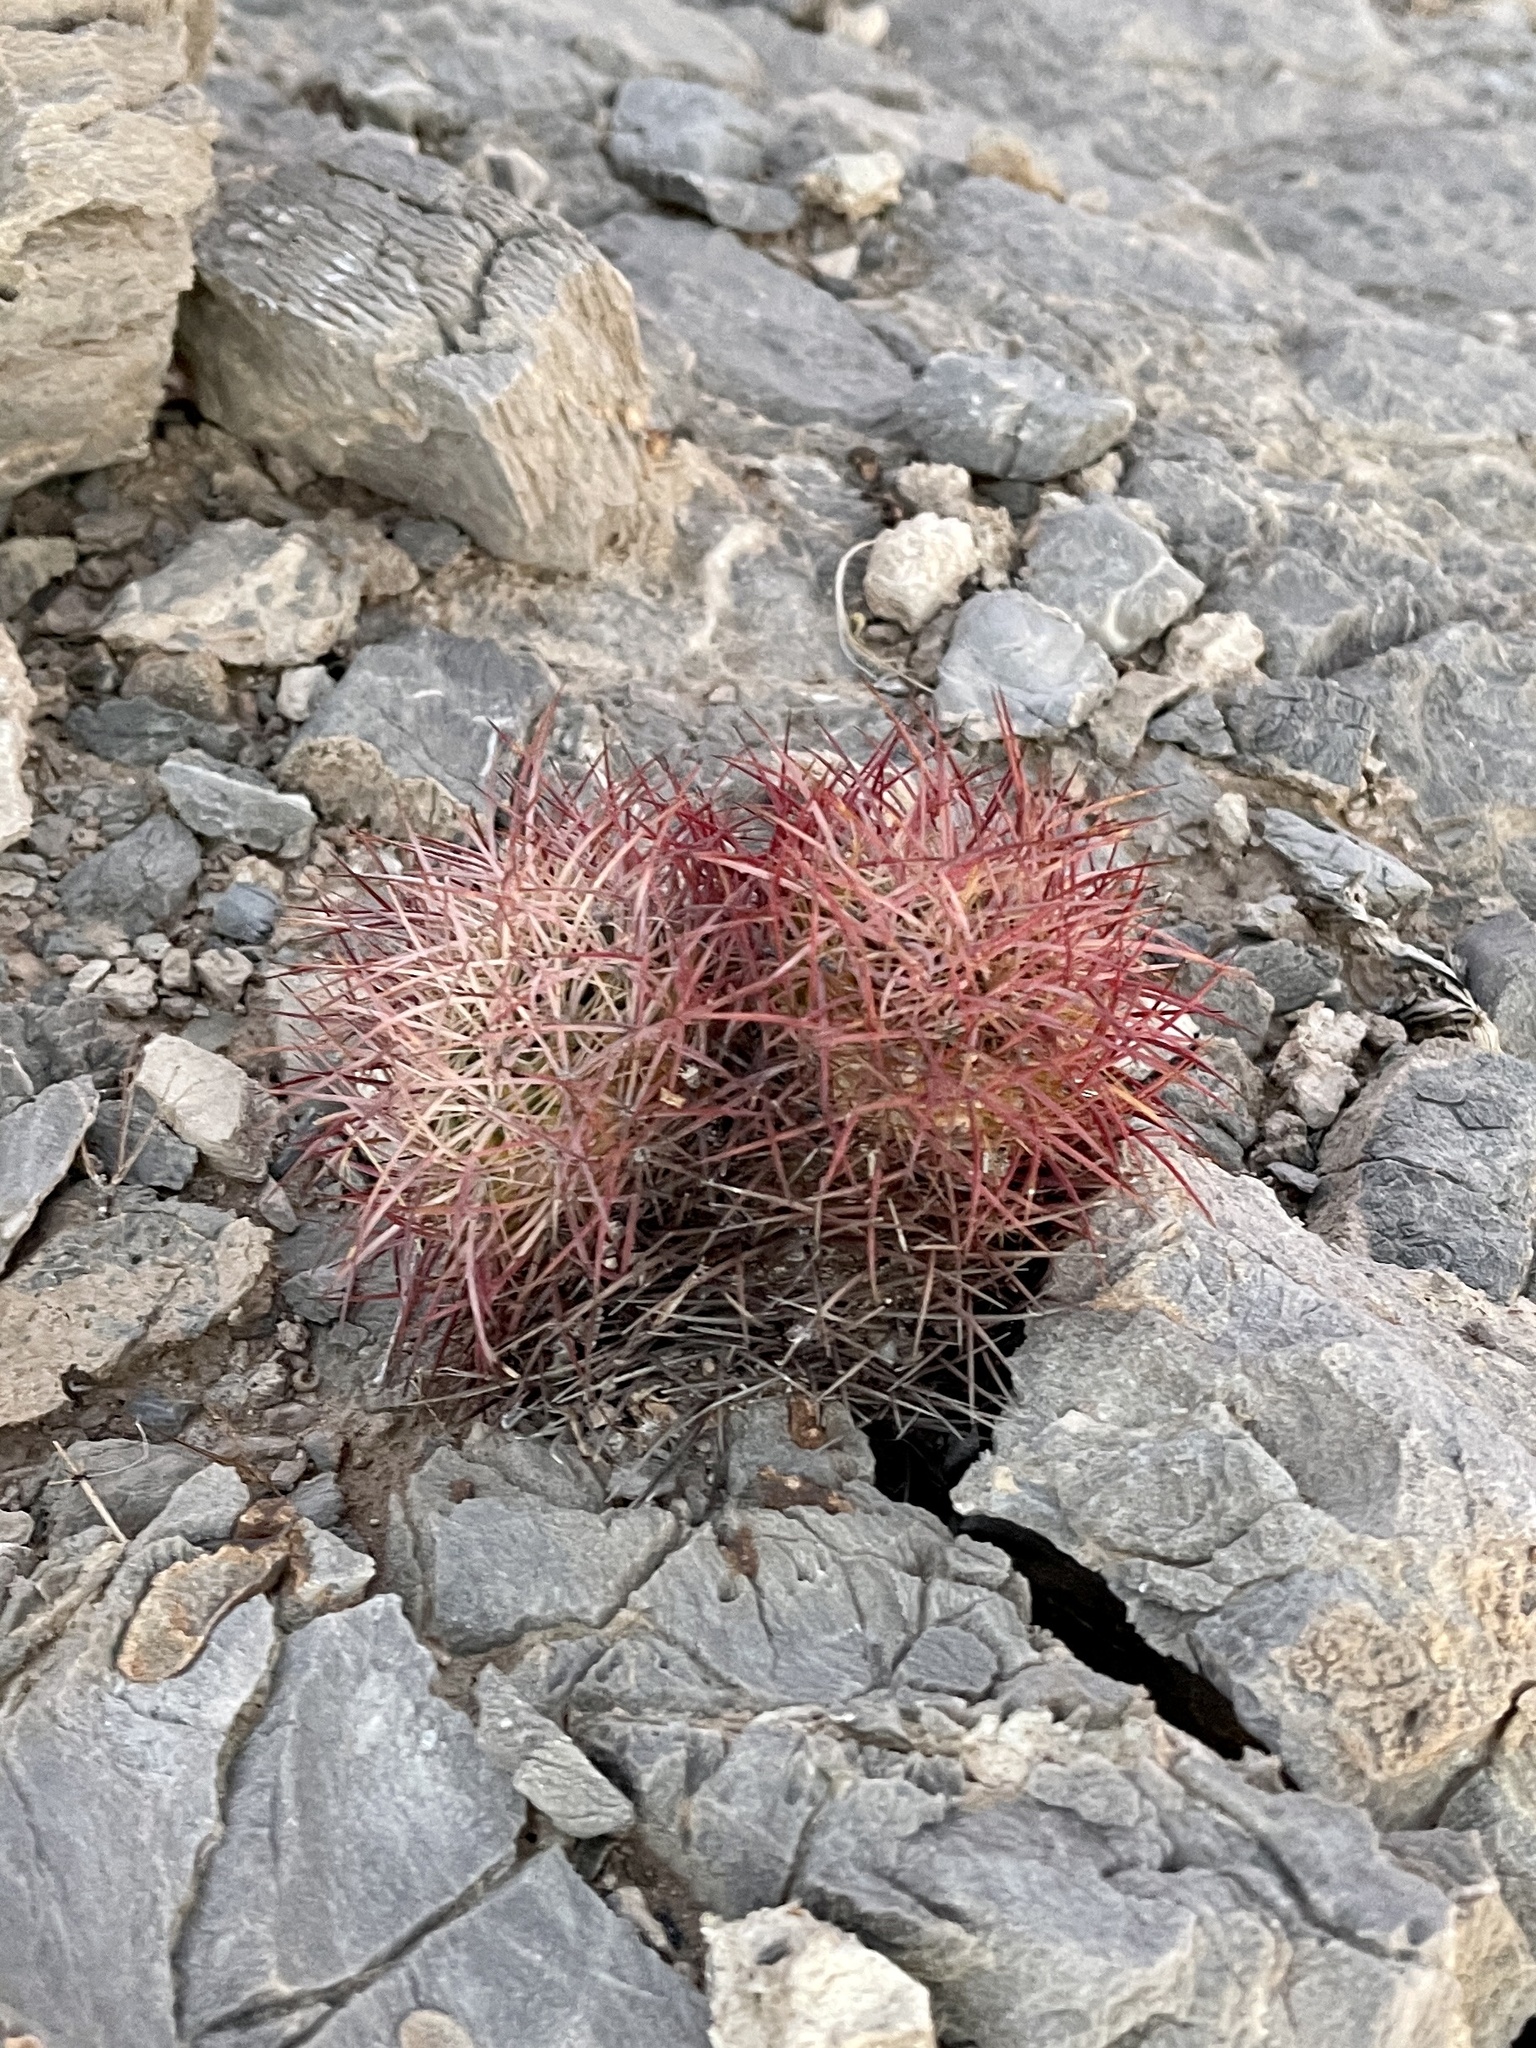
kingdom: Plantae
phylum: Tracheophyta
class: Magnoliopsida
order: Caryophyllales
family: Cactaceae
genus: Sclerocactus
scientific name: Sclerocactus johnsonii
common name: Eight-spine fishhook cactus
